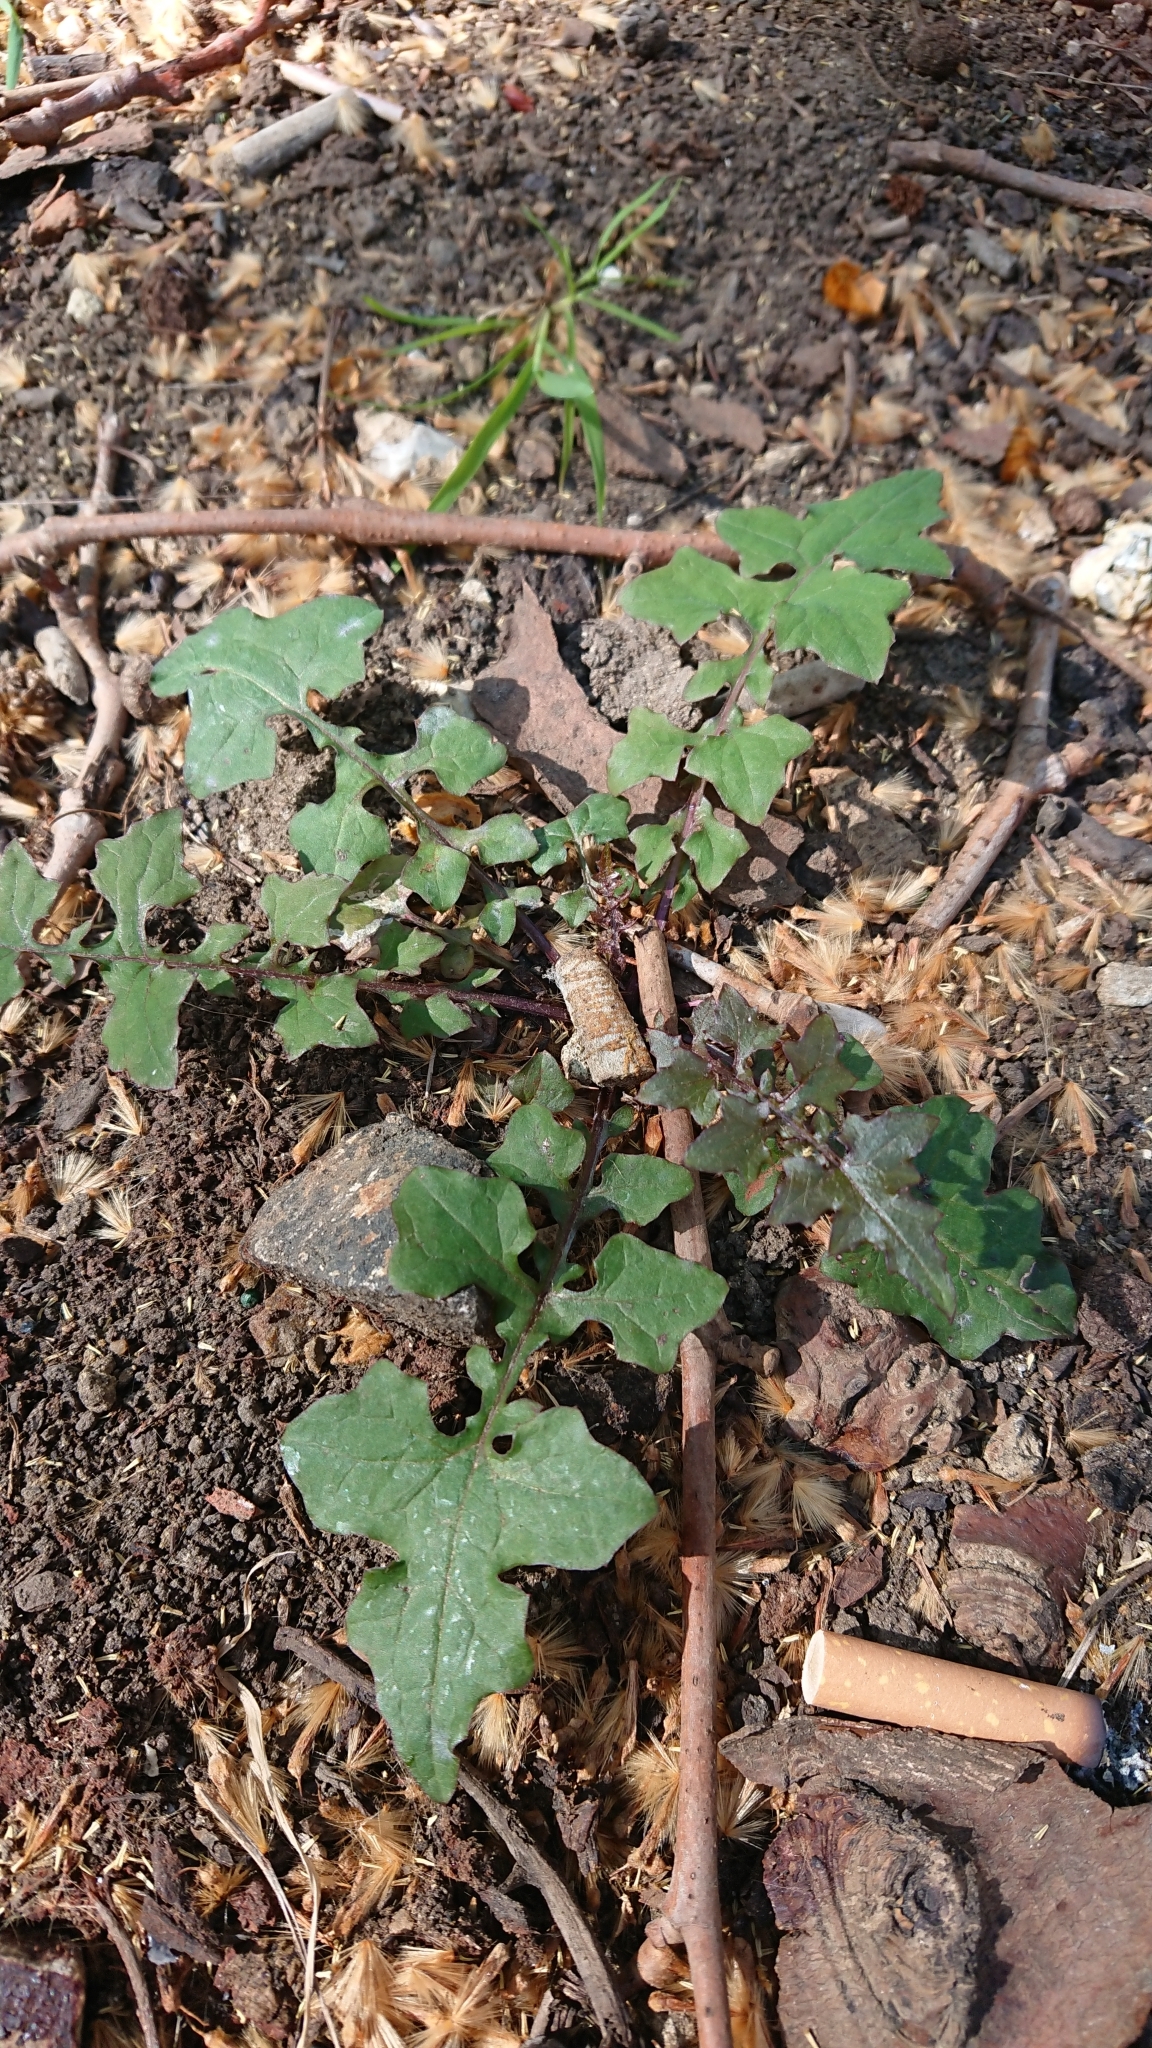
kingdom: Plantae
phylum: Tracheophyta
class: Magnoliopsida
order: Asterales
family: Asteraceae
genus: Mycelis
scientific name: Mycelis muralis
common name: Wall lettuce
